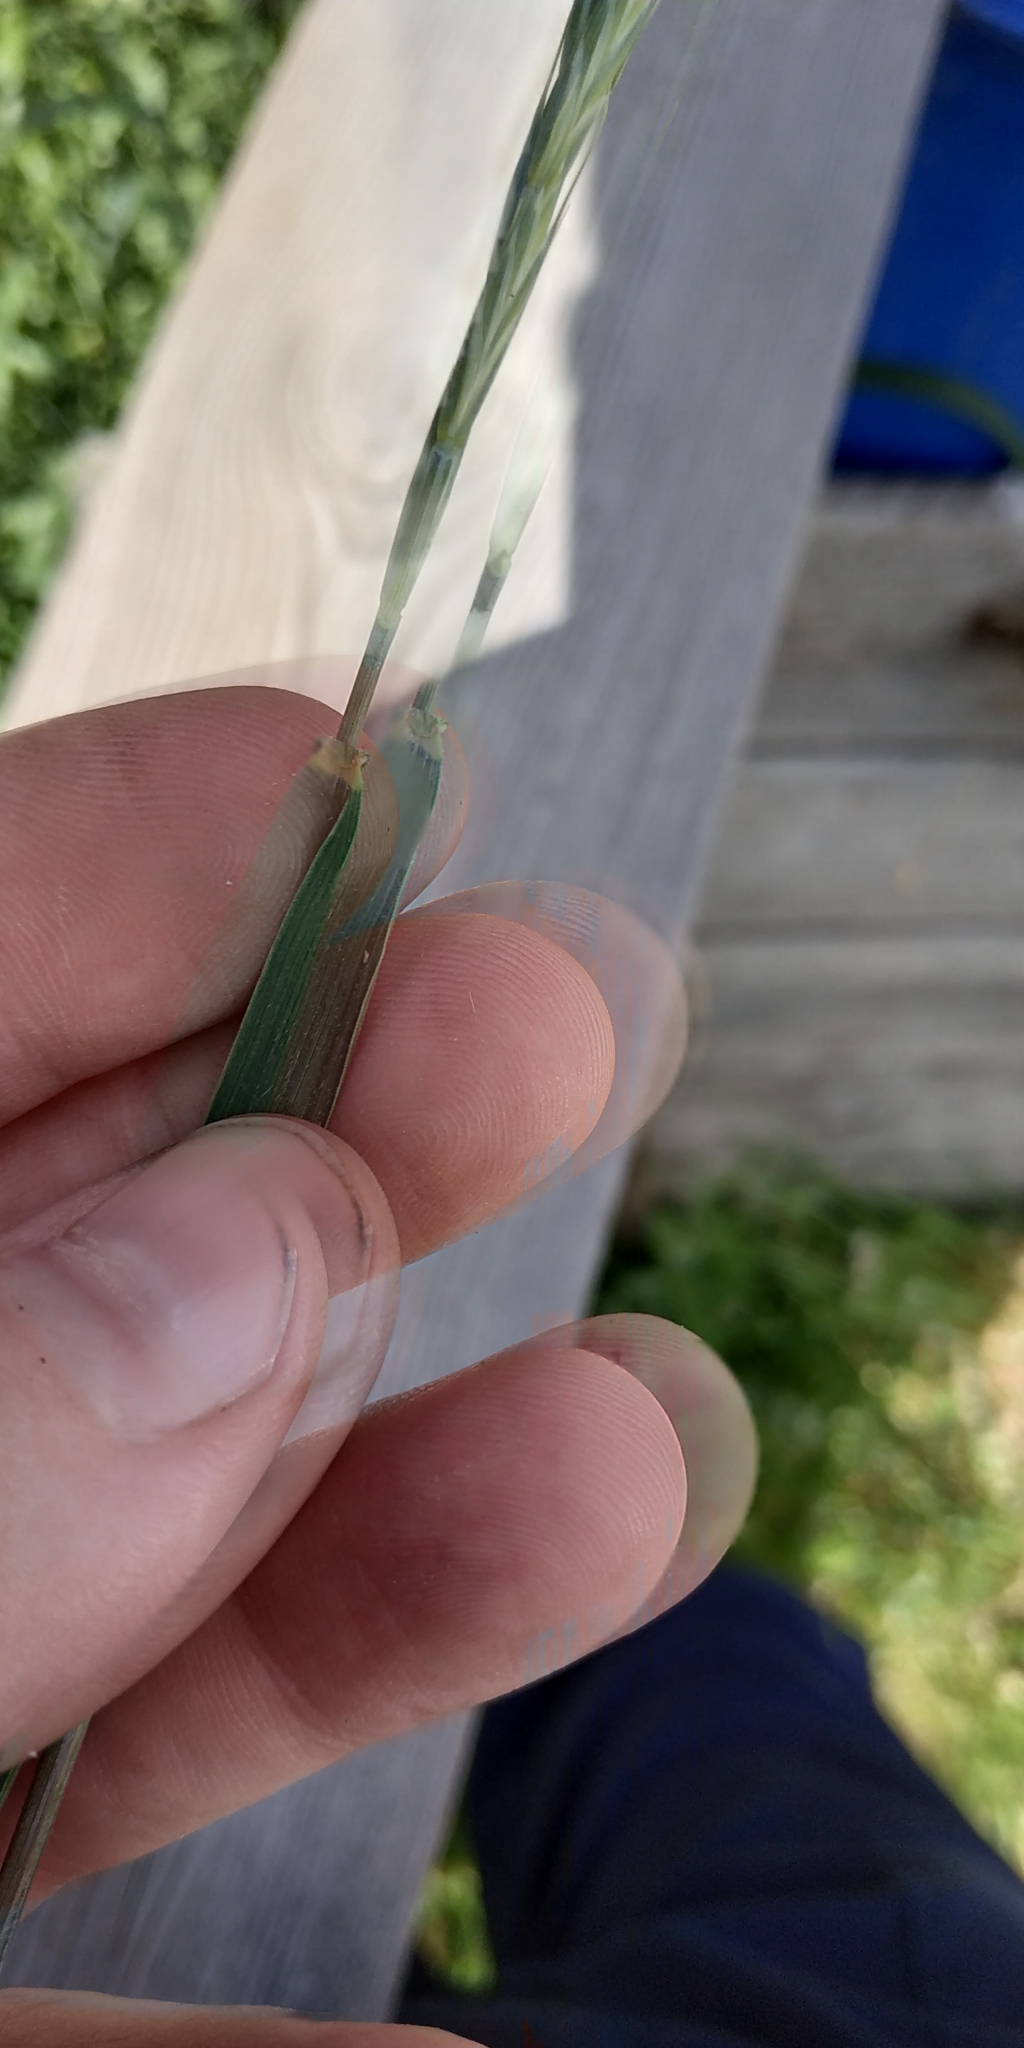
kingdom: Plantae
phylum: Tracheophyta
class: Liliopsida
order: Poales
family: Poaceae
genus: Elymus
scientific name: Elymus repens
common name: Quackgrass
